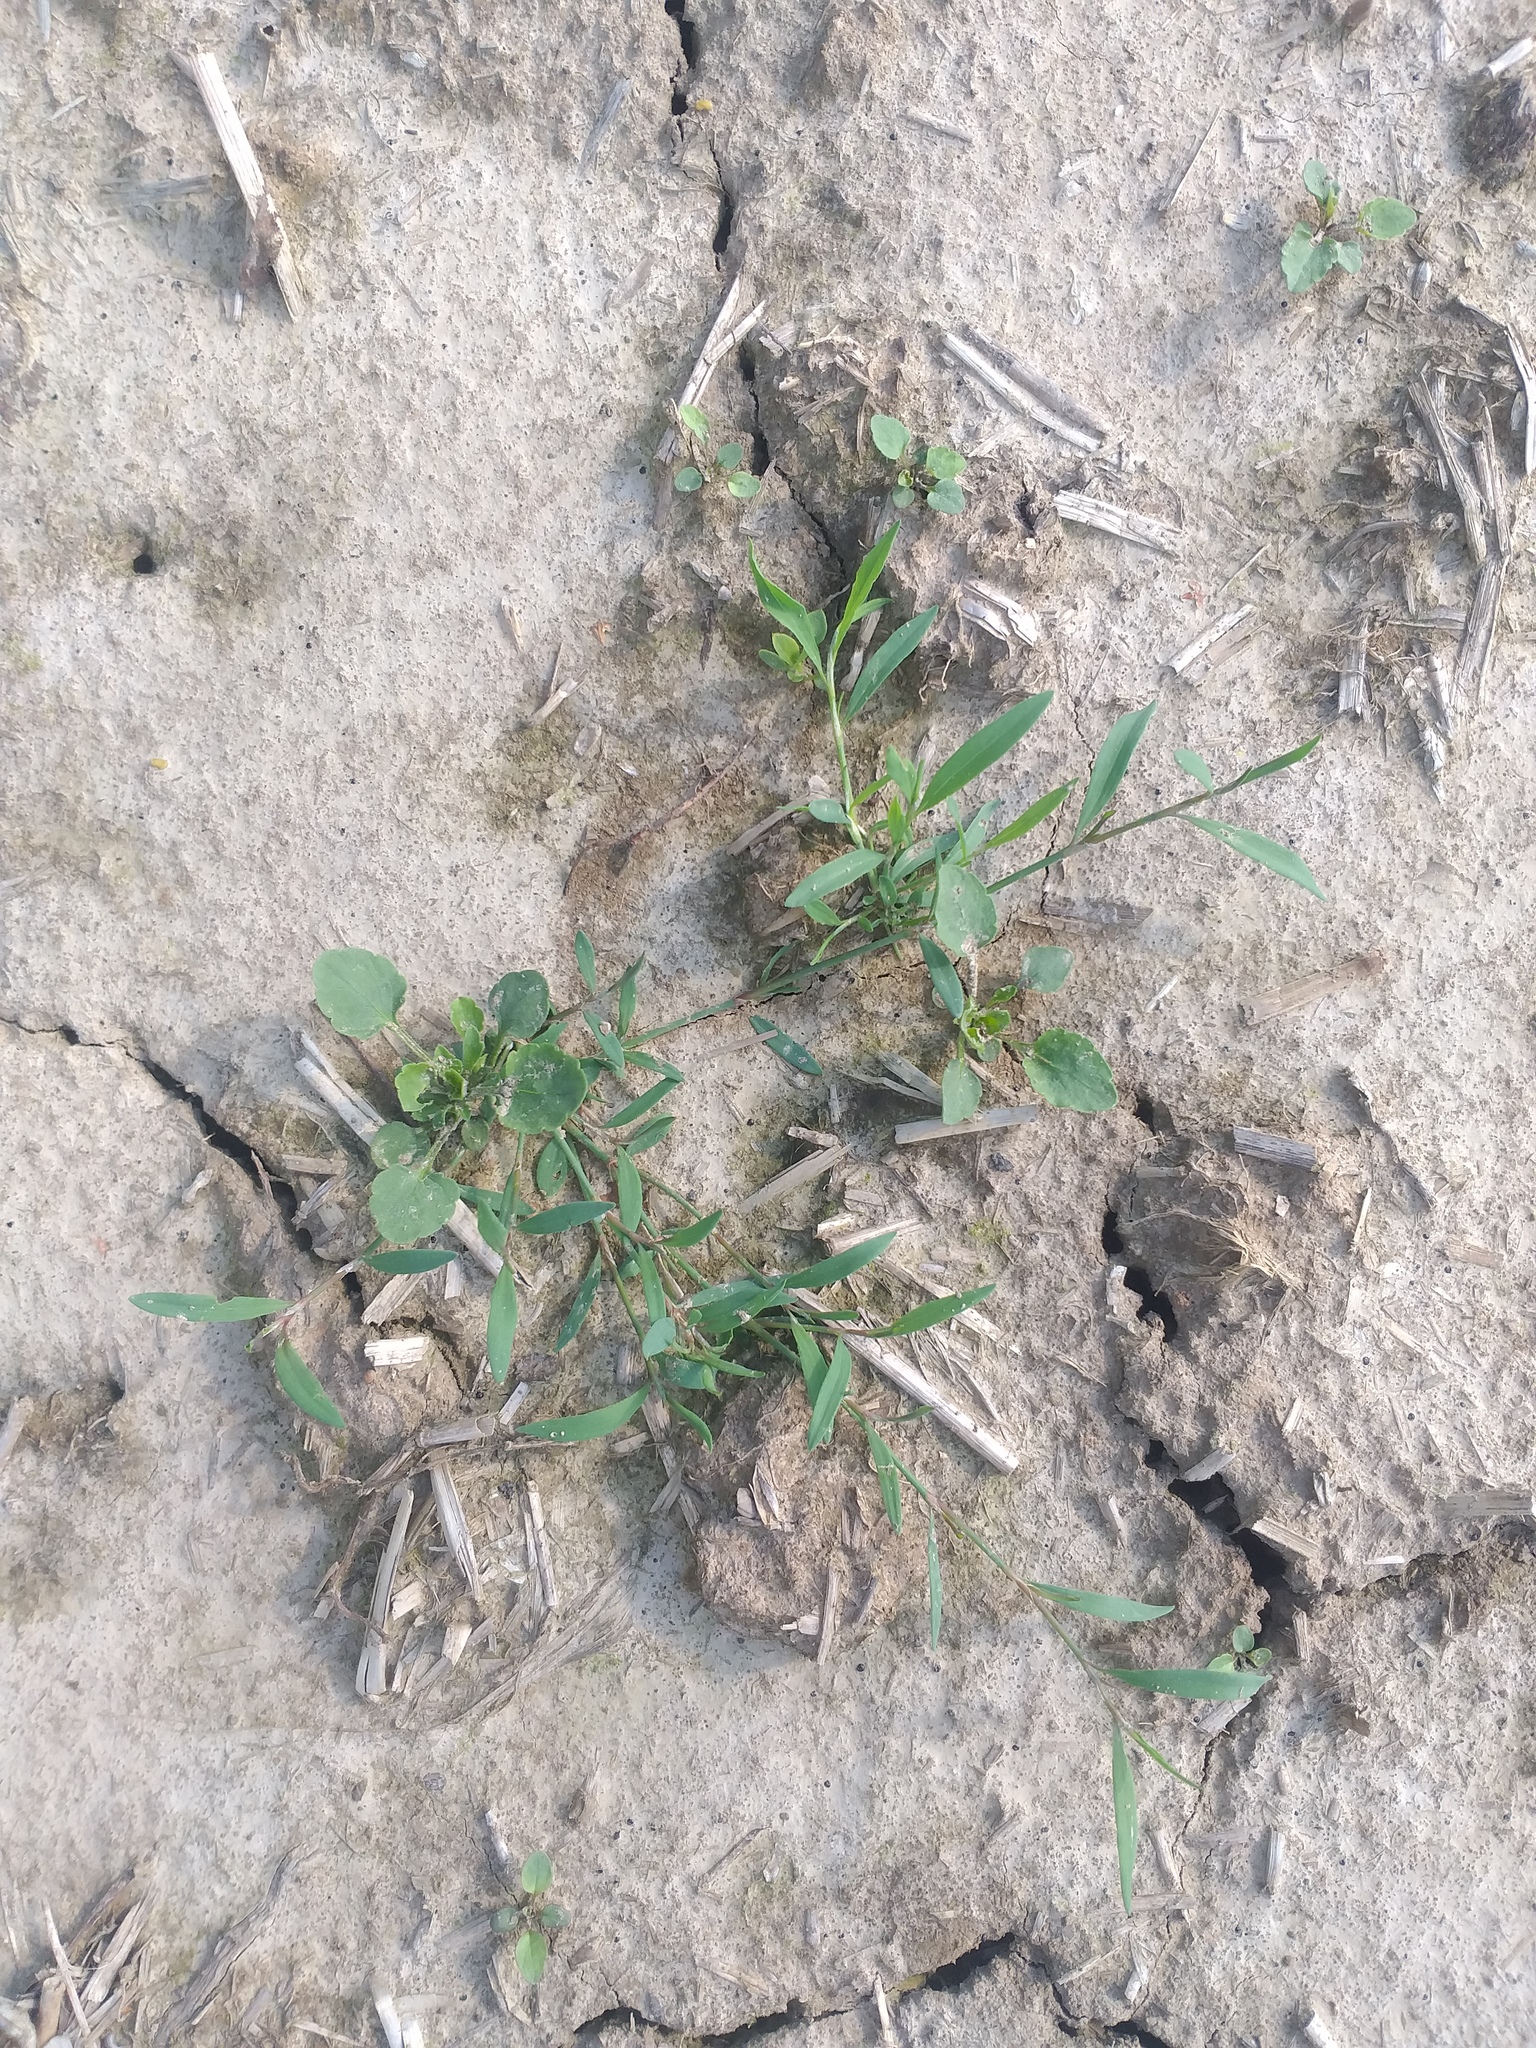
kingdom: Plantae
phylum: Tracheophyta
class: Magnoliopsida
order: Caryophyllales
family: Polygonaceae
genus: Polygonum
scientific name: Polygonum
